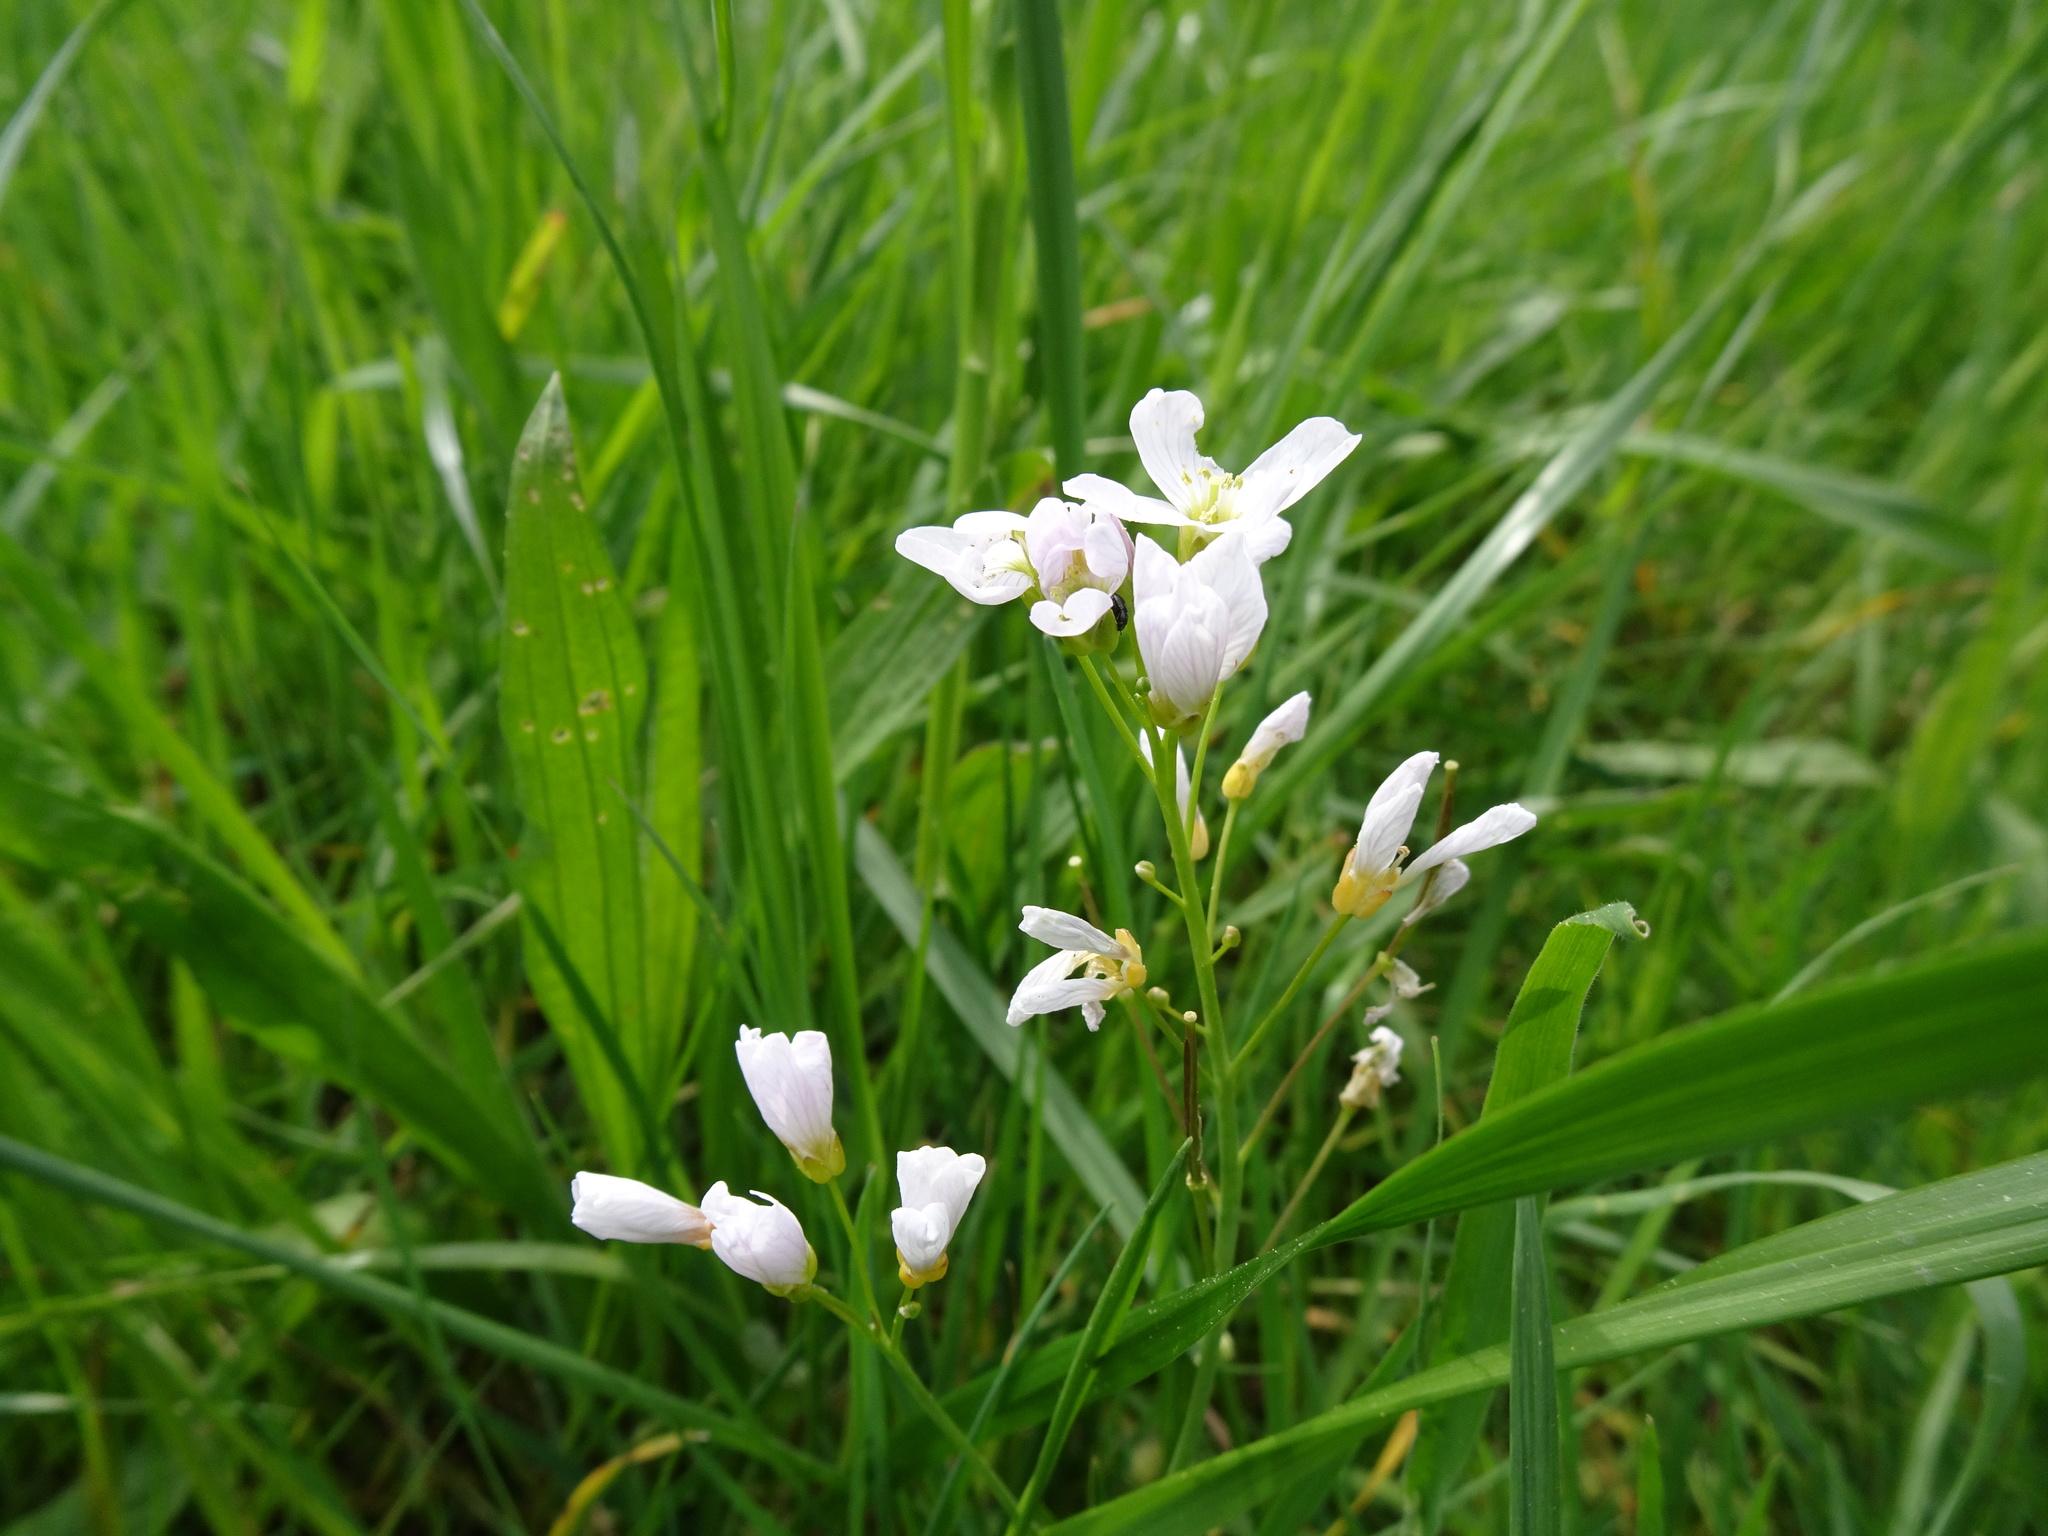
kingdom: Plantae
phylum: Tracheophyta
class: Magnoliopsida
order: Brassicales
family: Brassicaceae
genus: Cardamine
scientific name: Cardamine pratensis
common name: Cuckoo flower
